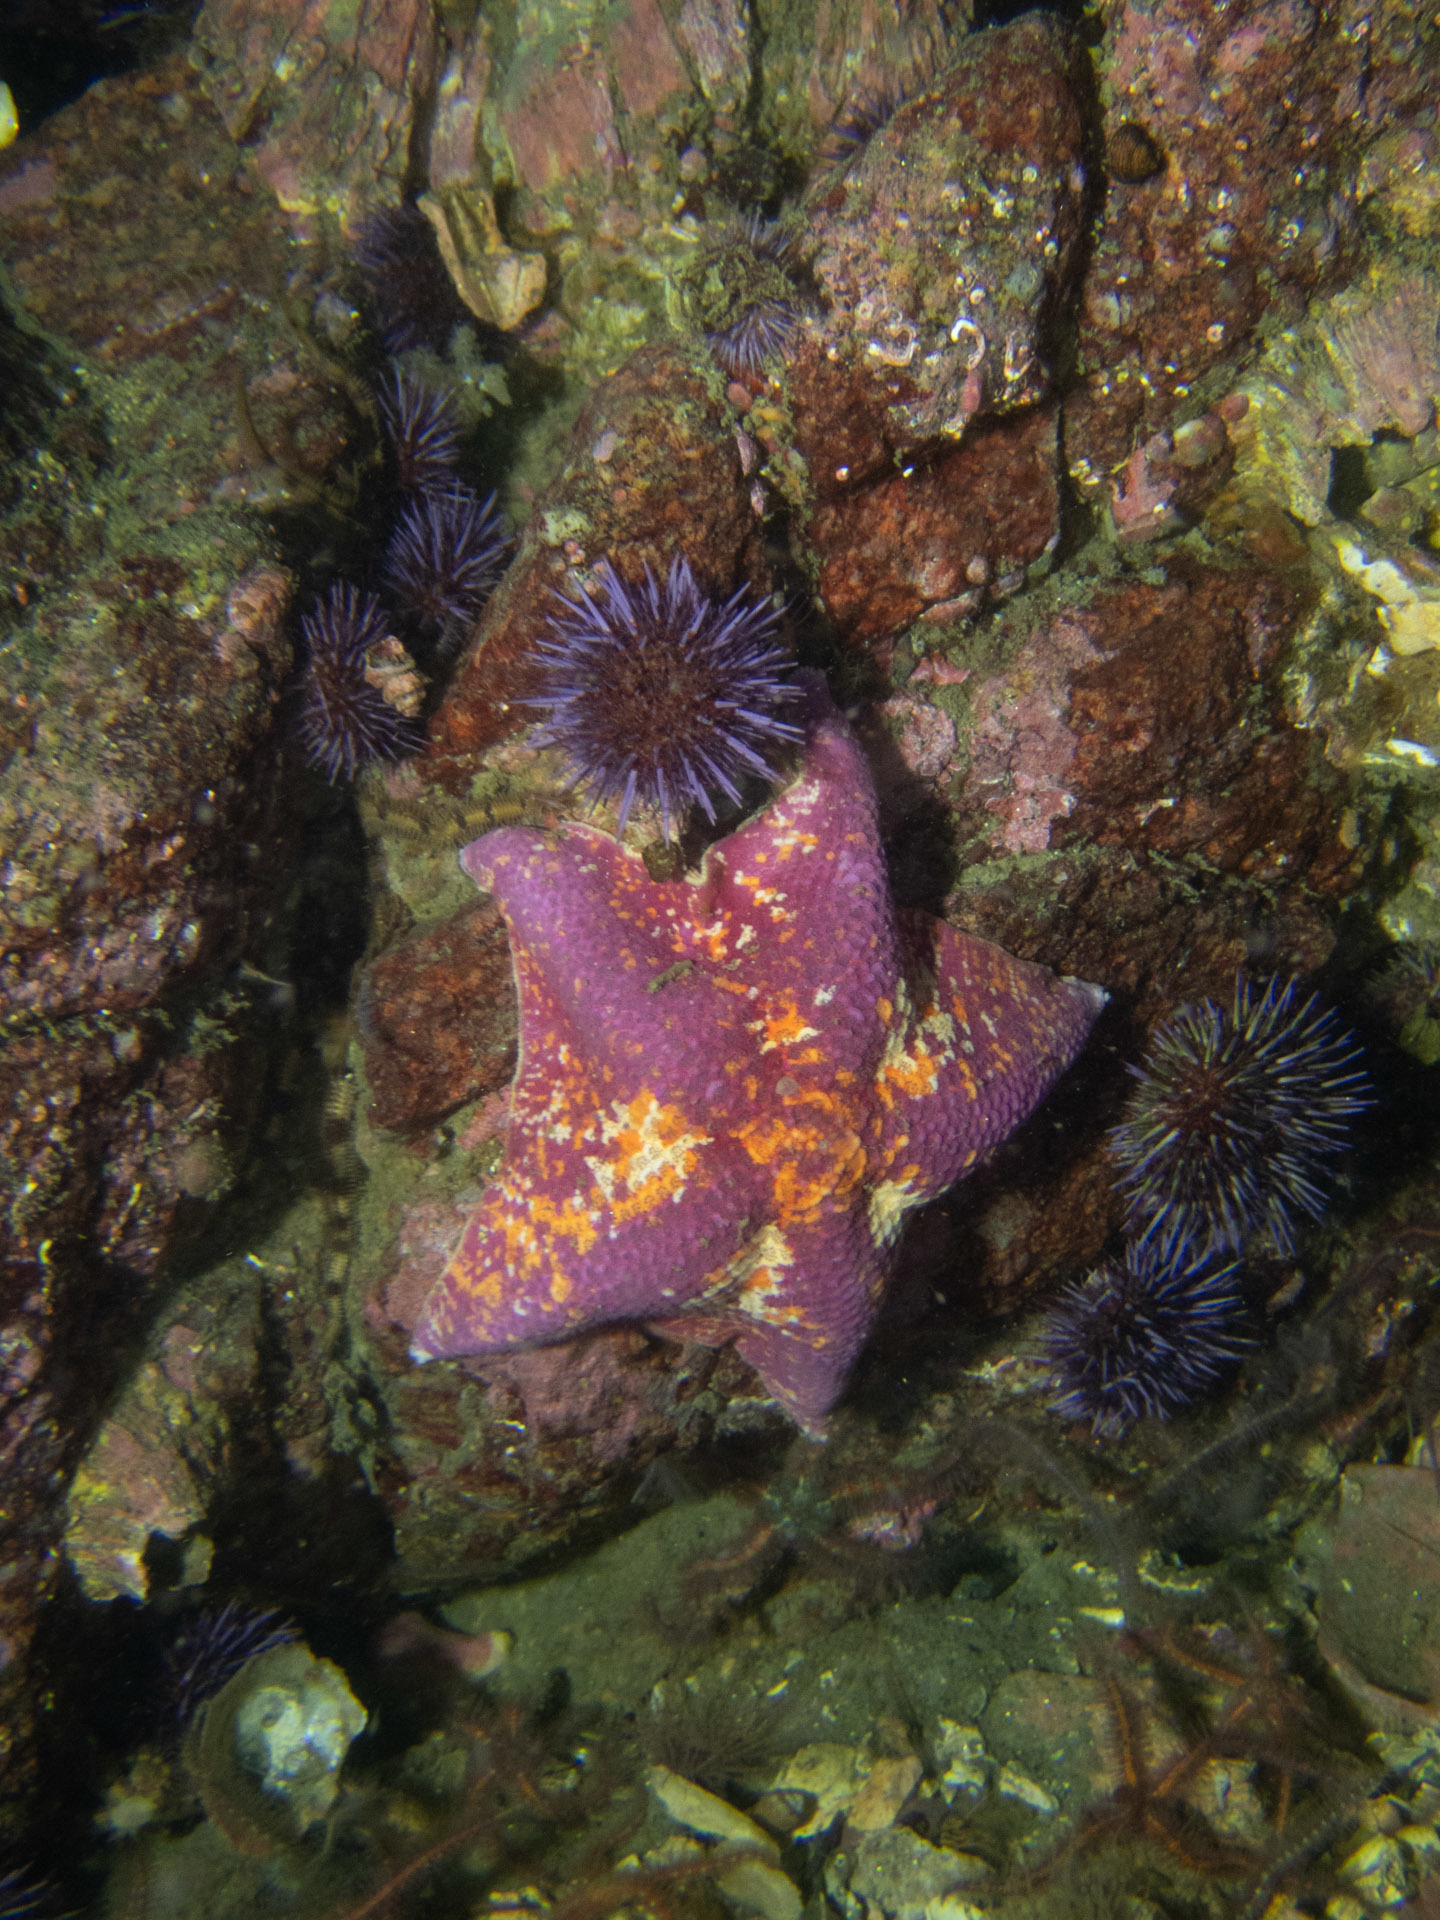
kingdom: Animalia
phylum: Echinodermata
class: Asteroidea
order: Valvatida
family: Asterinidae
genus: Patiria
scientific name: Patiria miniata
